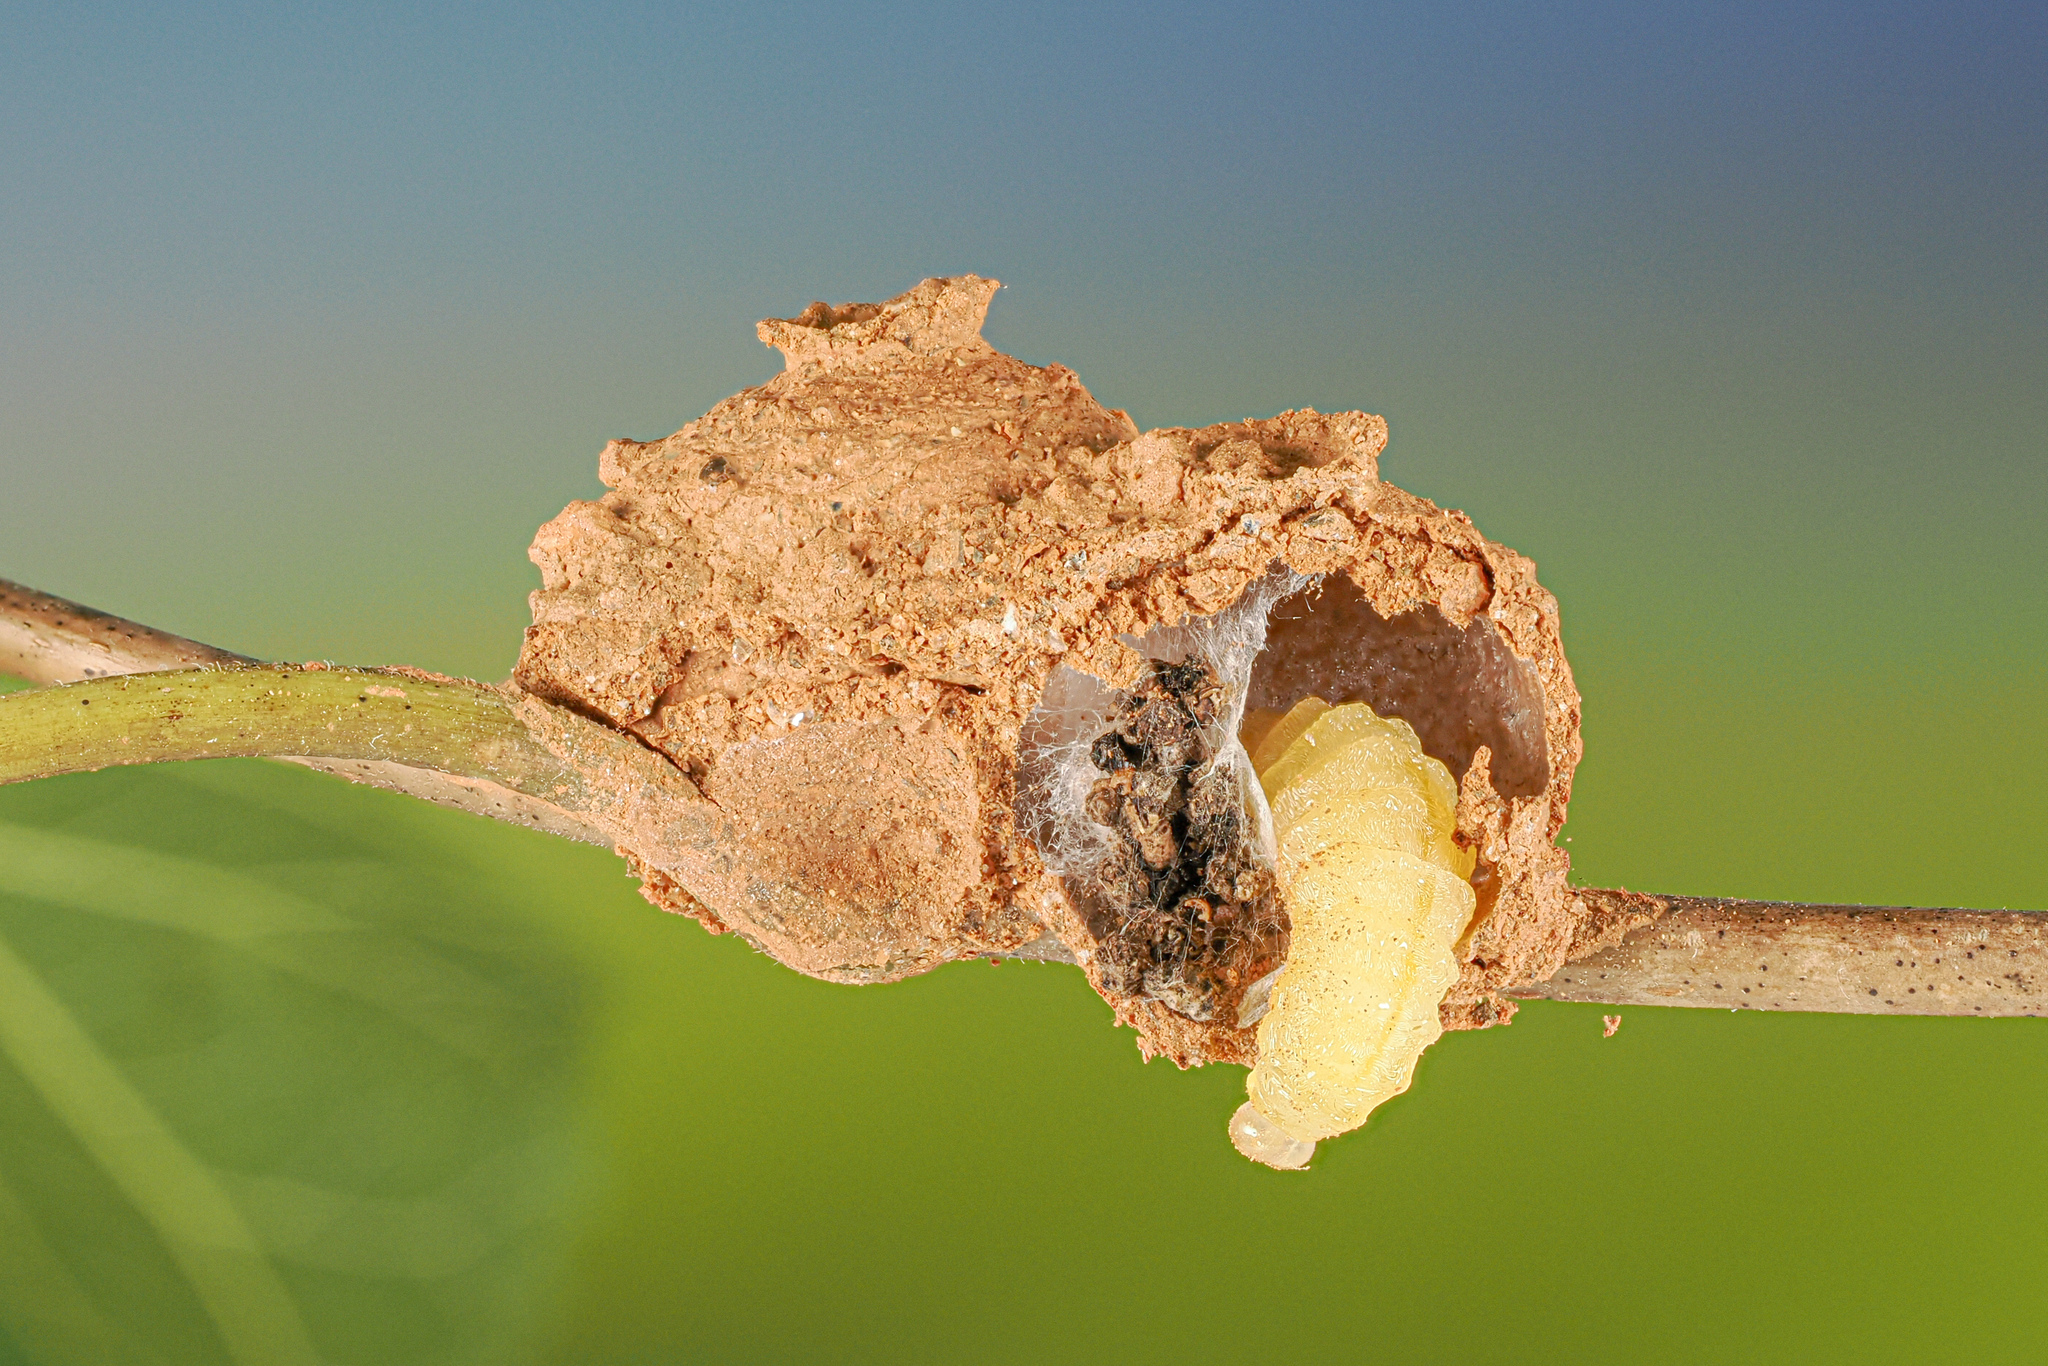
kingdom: Animalia
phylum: Arthropoda
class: Insecta
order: Hymenoptera
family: Vespidae
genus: Eumenes
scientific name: Eumenes fraternus
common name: Fraternal potter wasp
